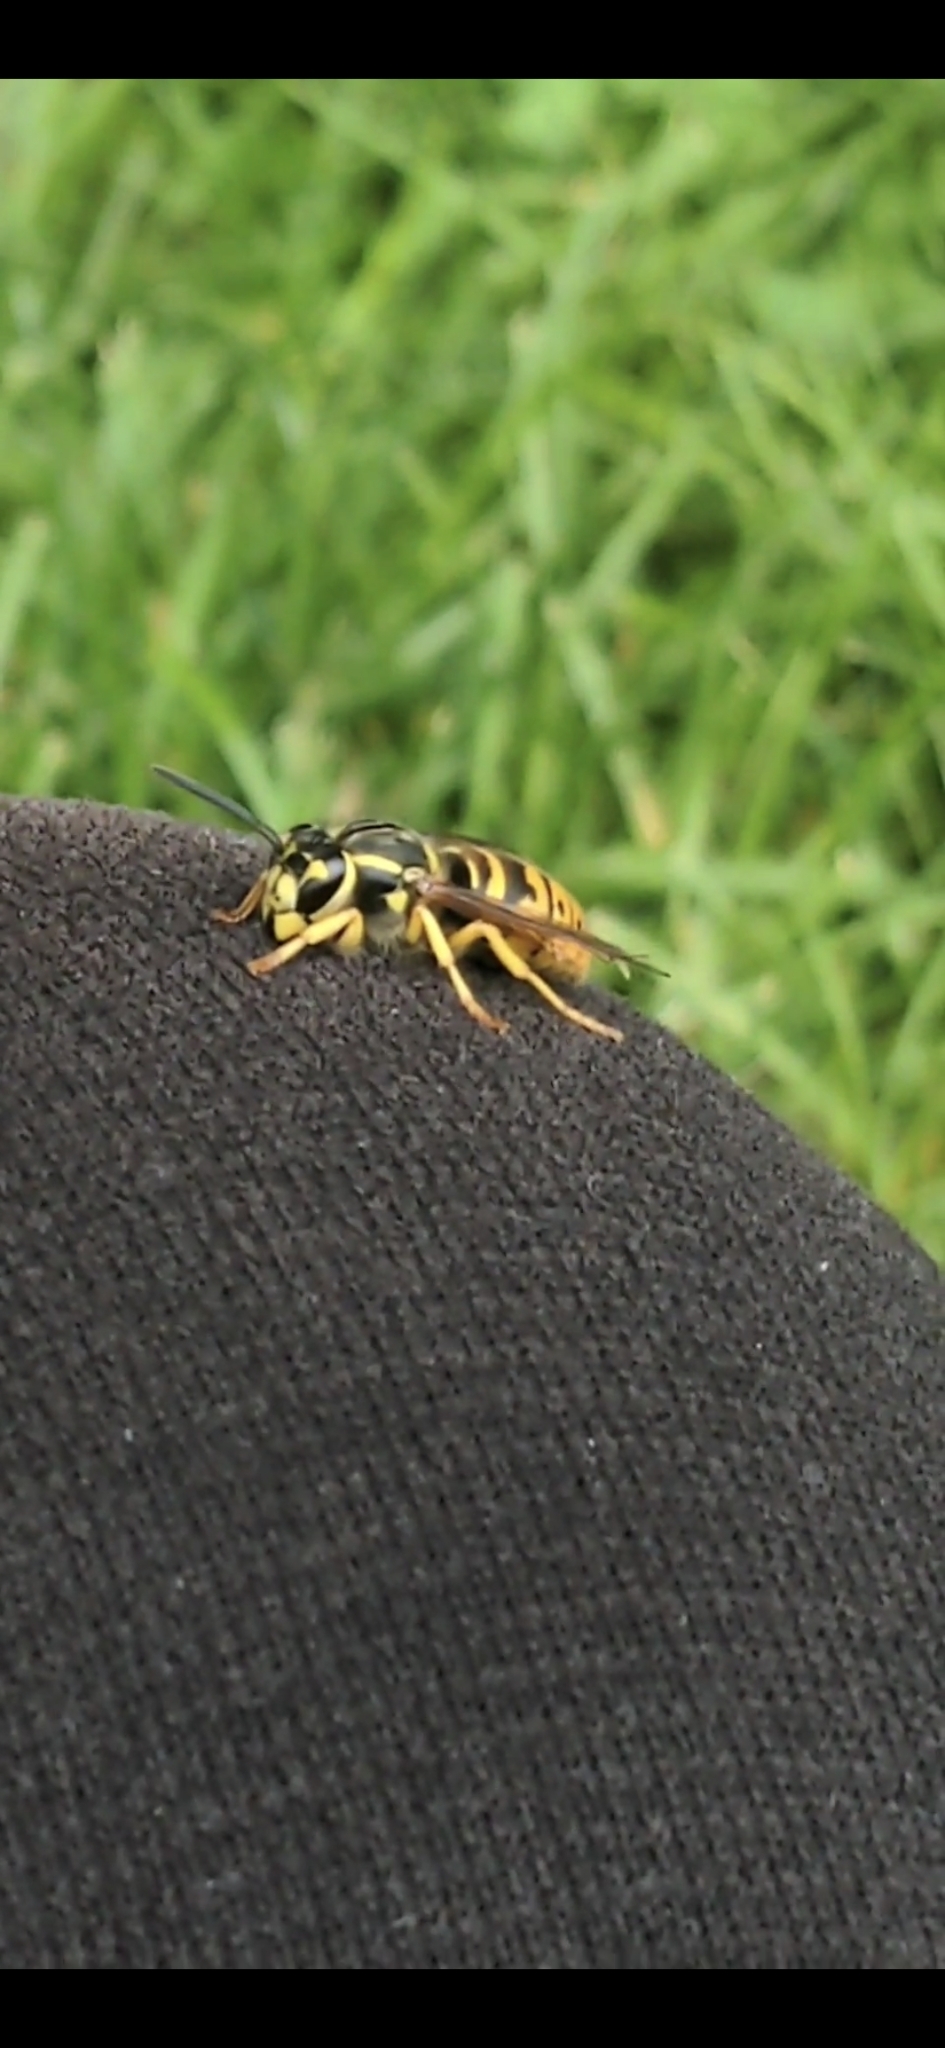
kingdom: Animalia
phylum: Arthropoda
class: Insecta
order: Hymenoptera
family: Vespidae
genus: Vespula
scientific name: Vespula maculifrons
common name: Eastern yellowjacket
